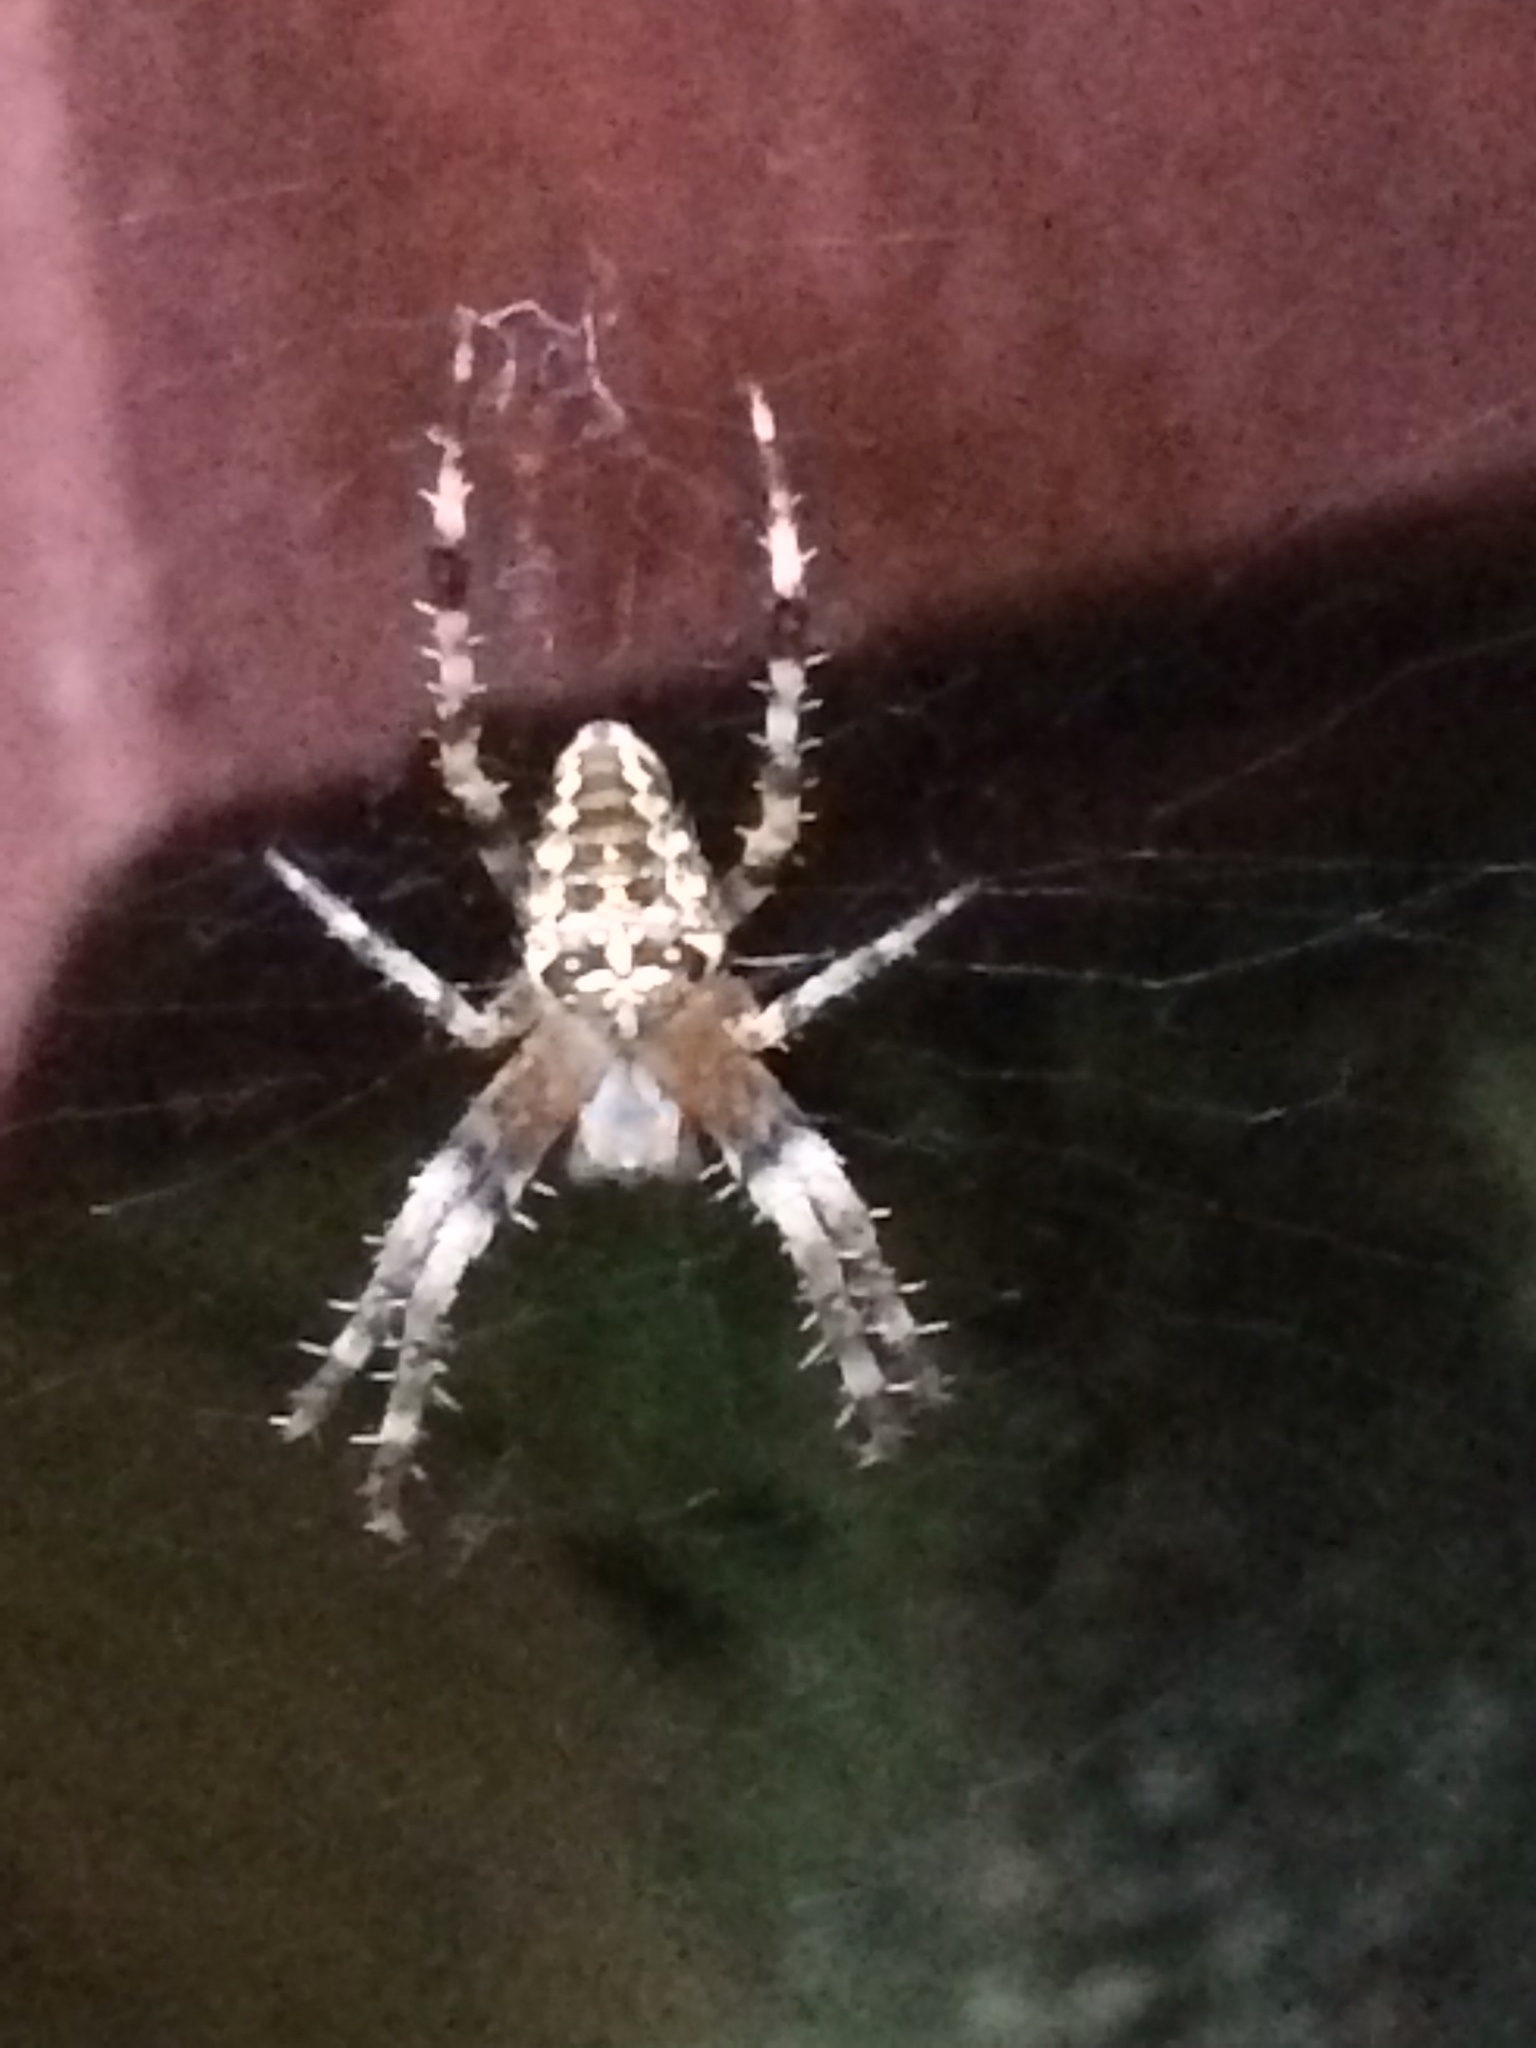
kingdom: Animalia
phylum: Arthropoda
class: Arachnida
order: Araneae
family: Araneidae
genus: Araneus
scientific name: Araneus diadematus
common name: Cross orbweaver
